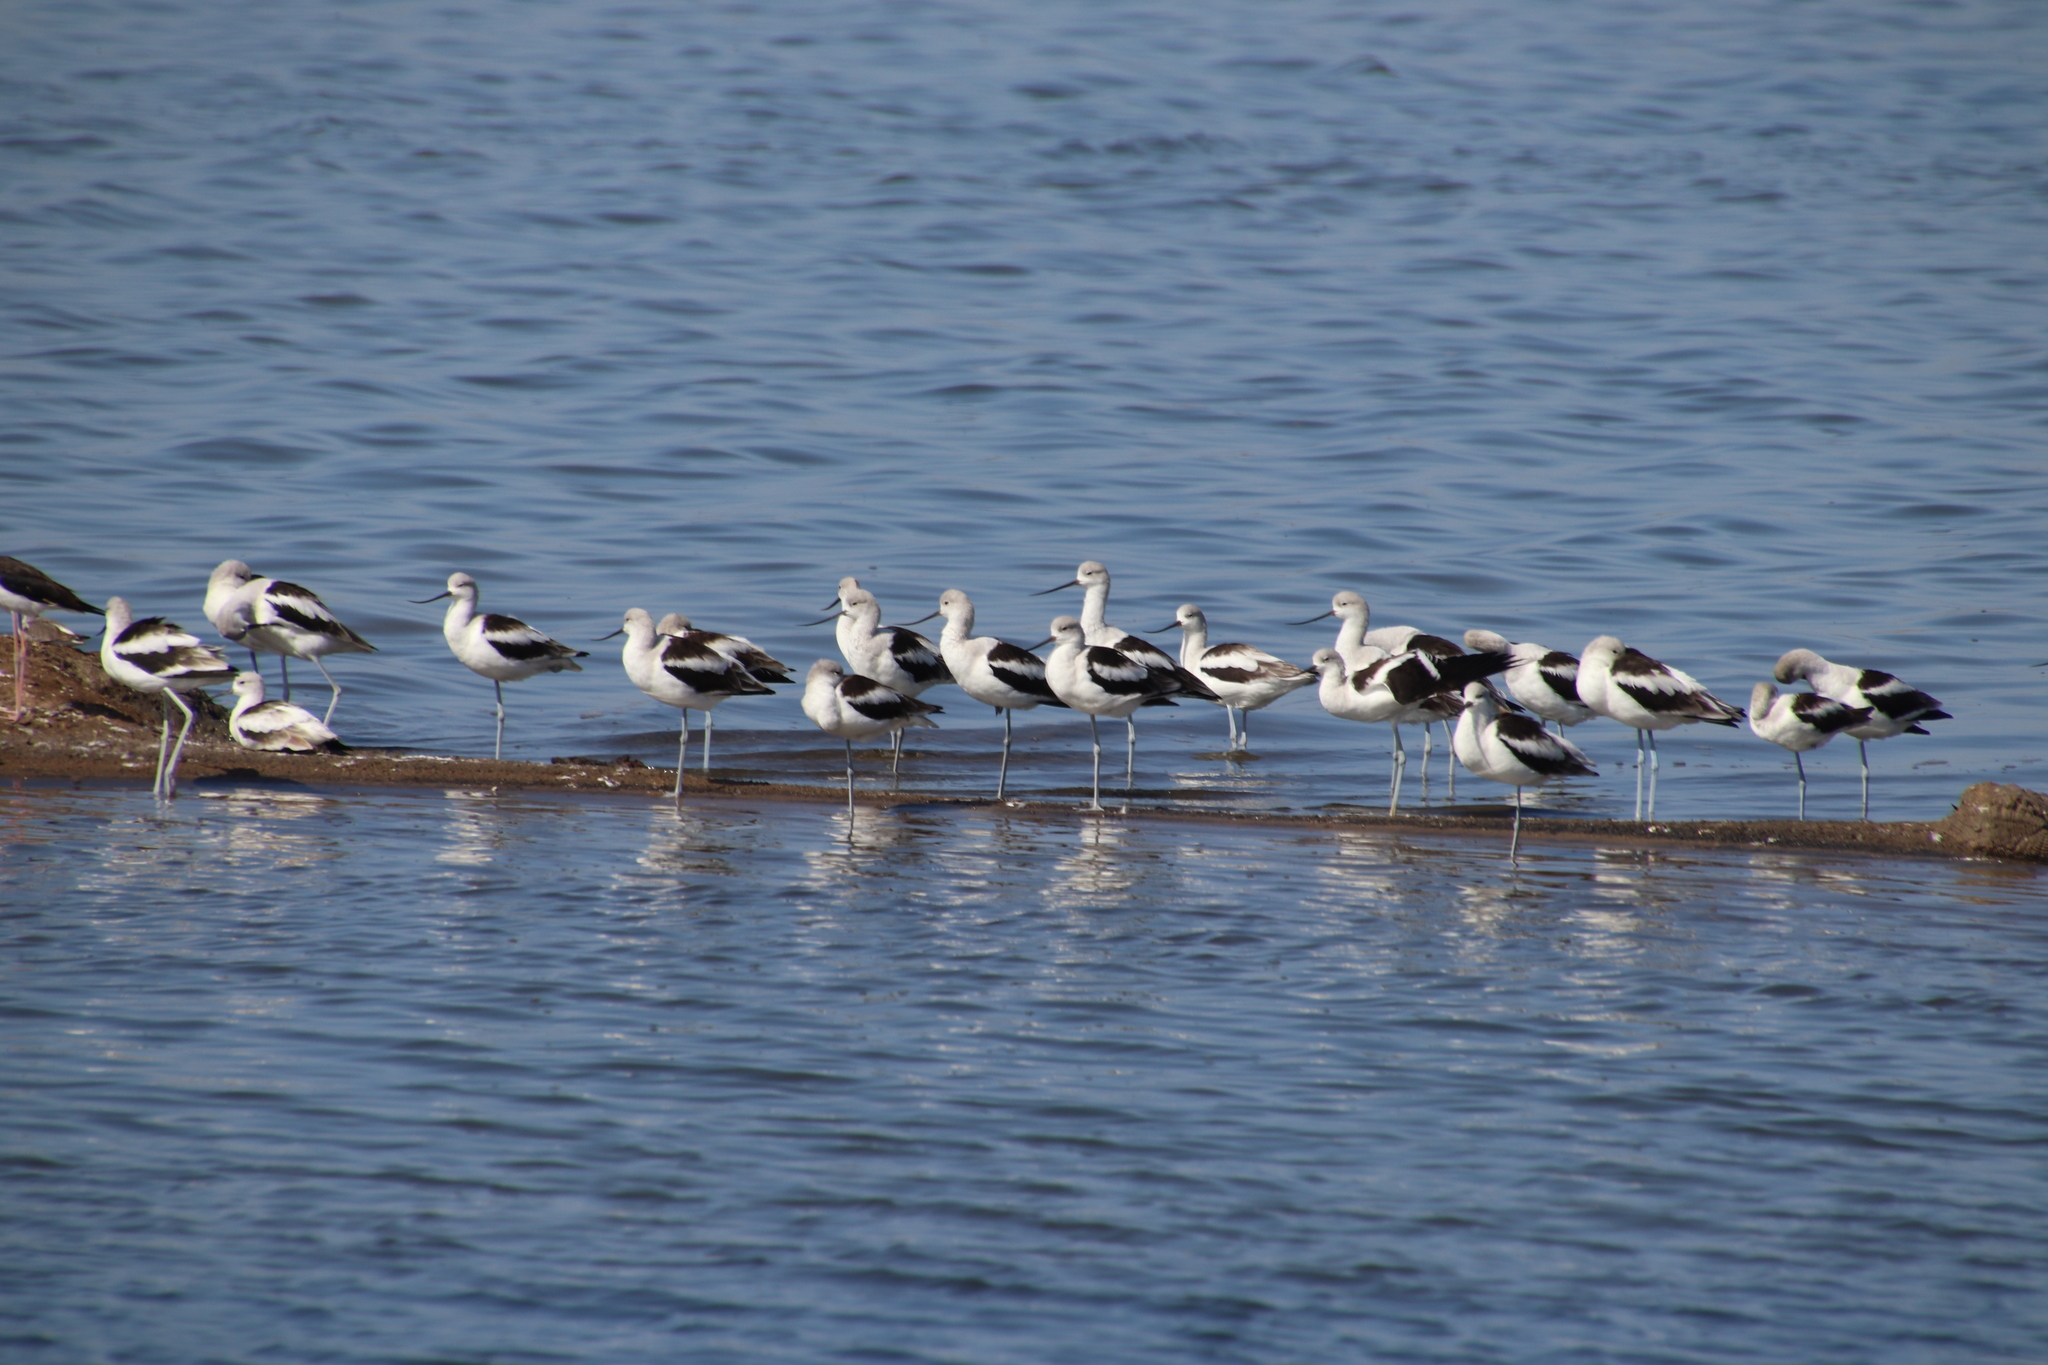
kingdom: Animalia
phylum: Chordata
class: Aves
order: Charadriiformes
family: Recurvirostridae
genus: Recurvirostra
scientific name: Recurvirostra americana
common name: American avocet
